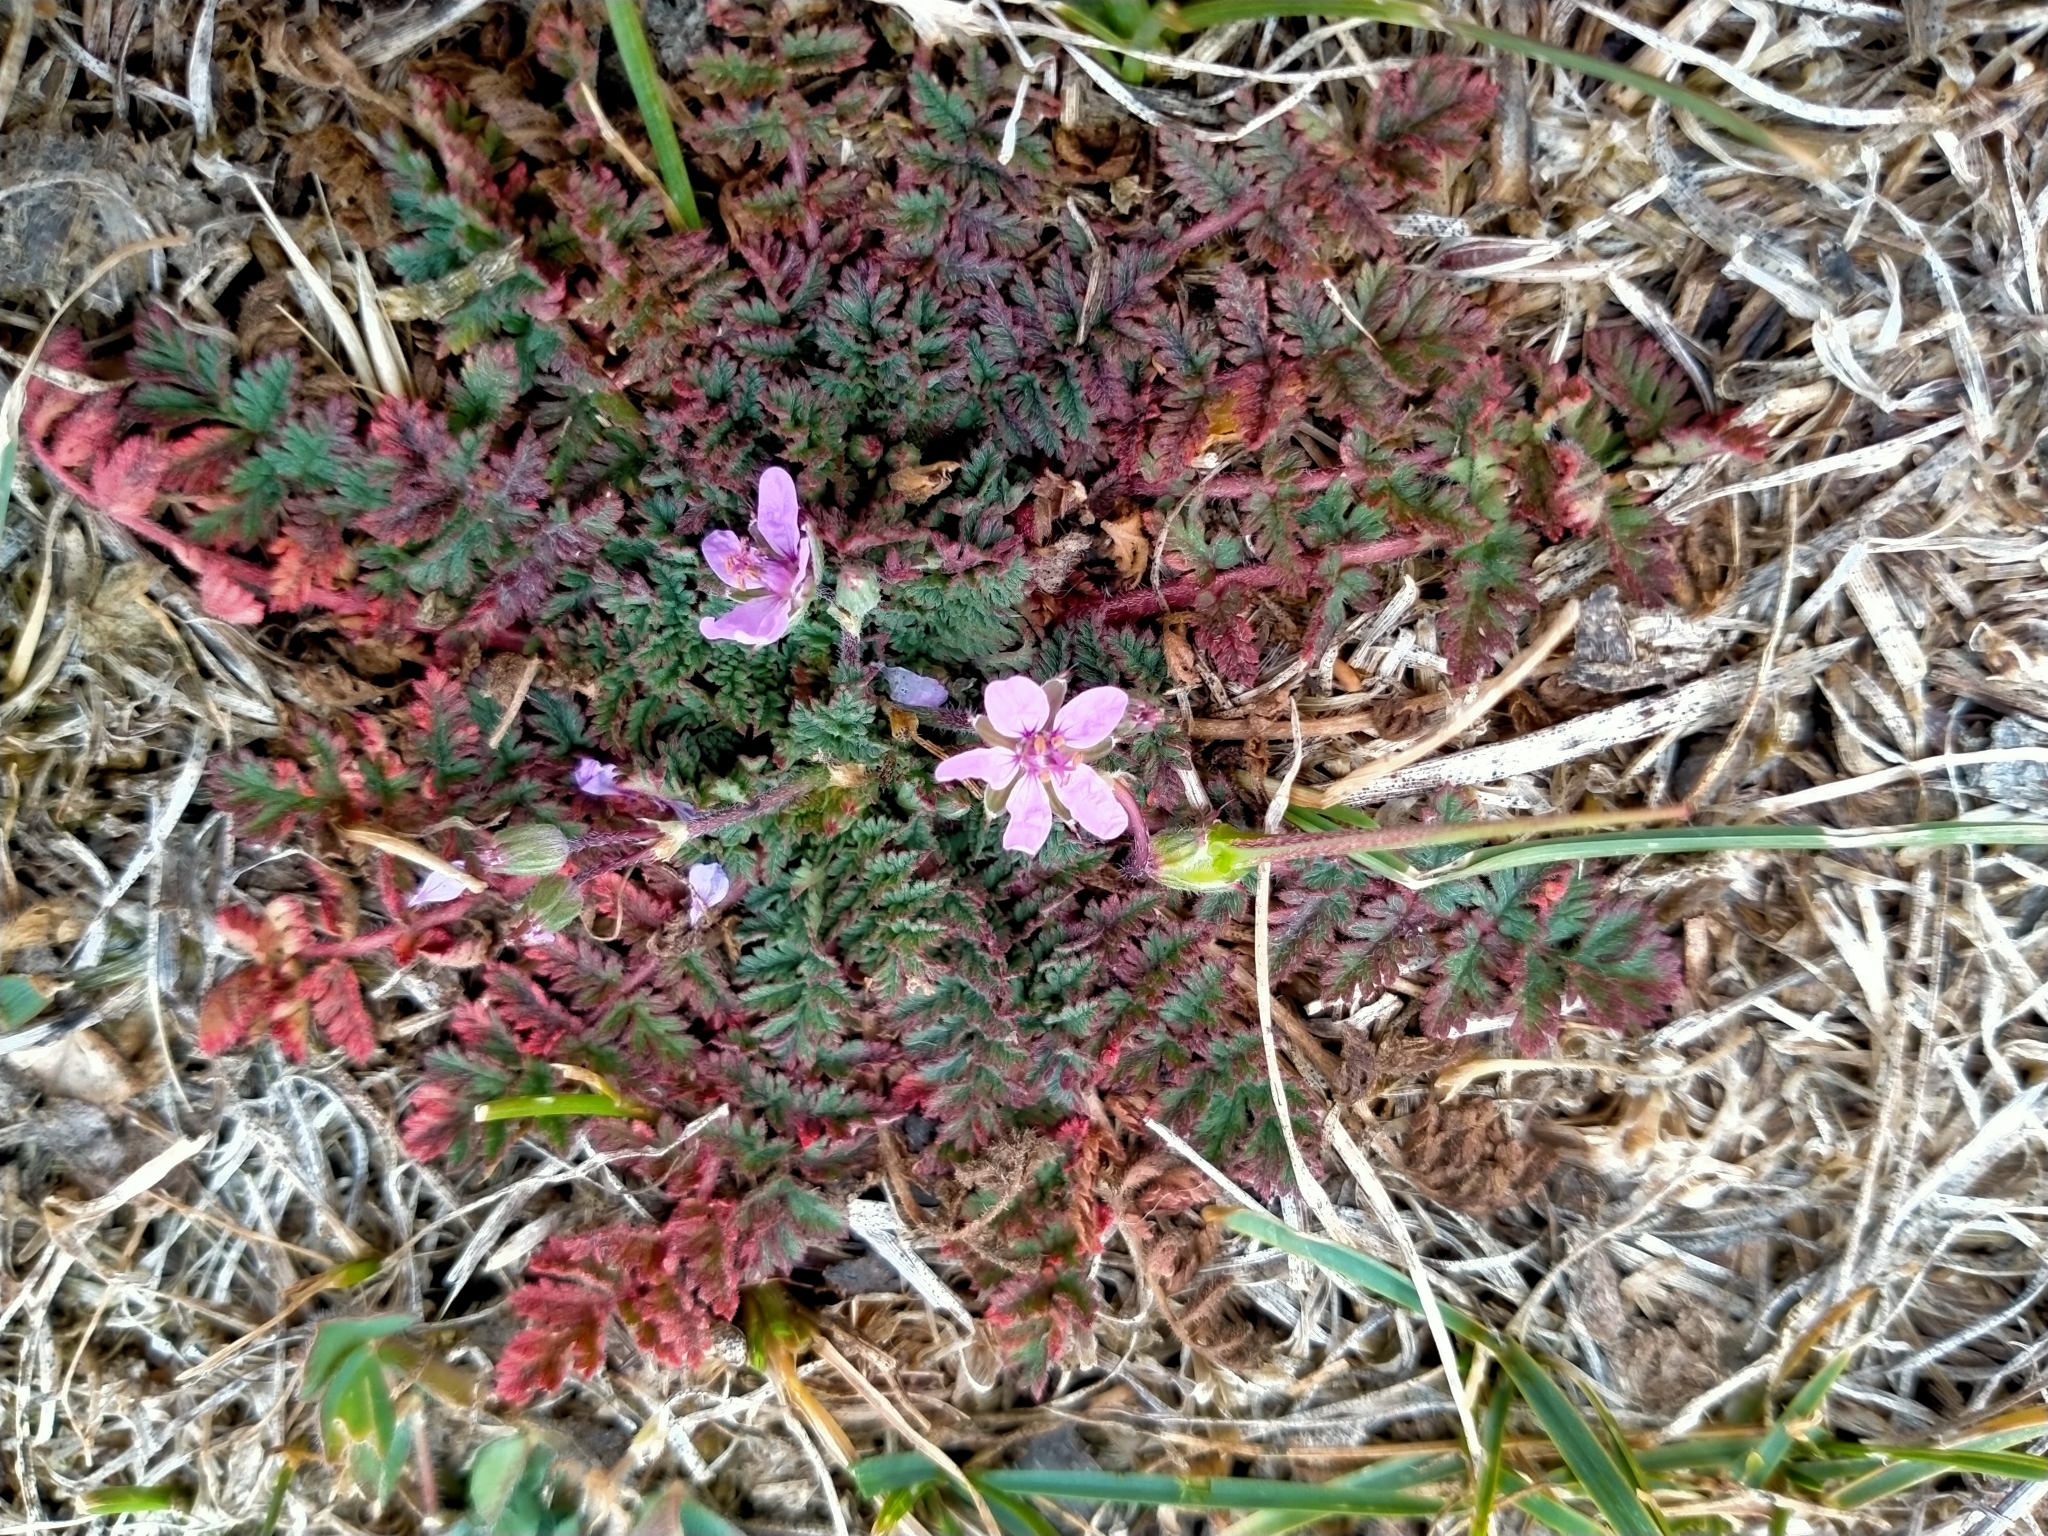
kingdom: Plantae
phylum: Tracheophyta
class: Magnoliopsida
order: Geraniales
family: Geraniaceae
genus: Erodium
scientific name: Erodium cicutarium
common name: Common stork's-bill
